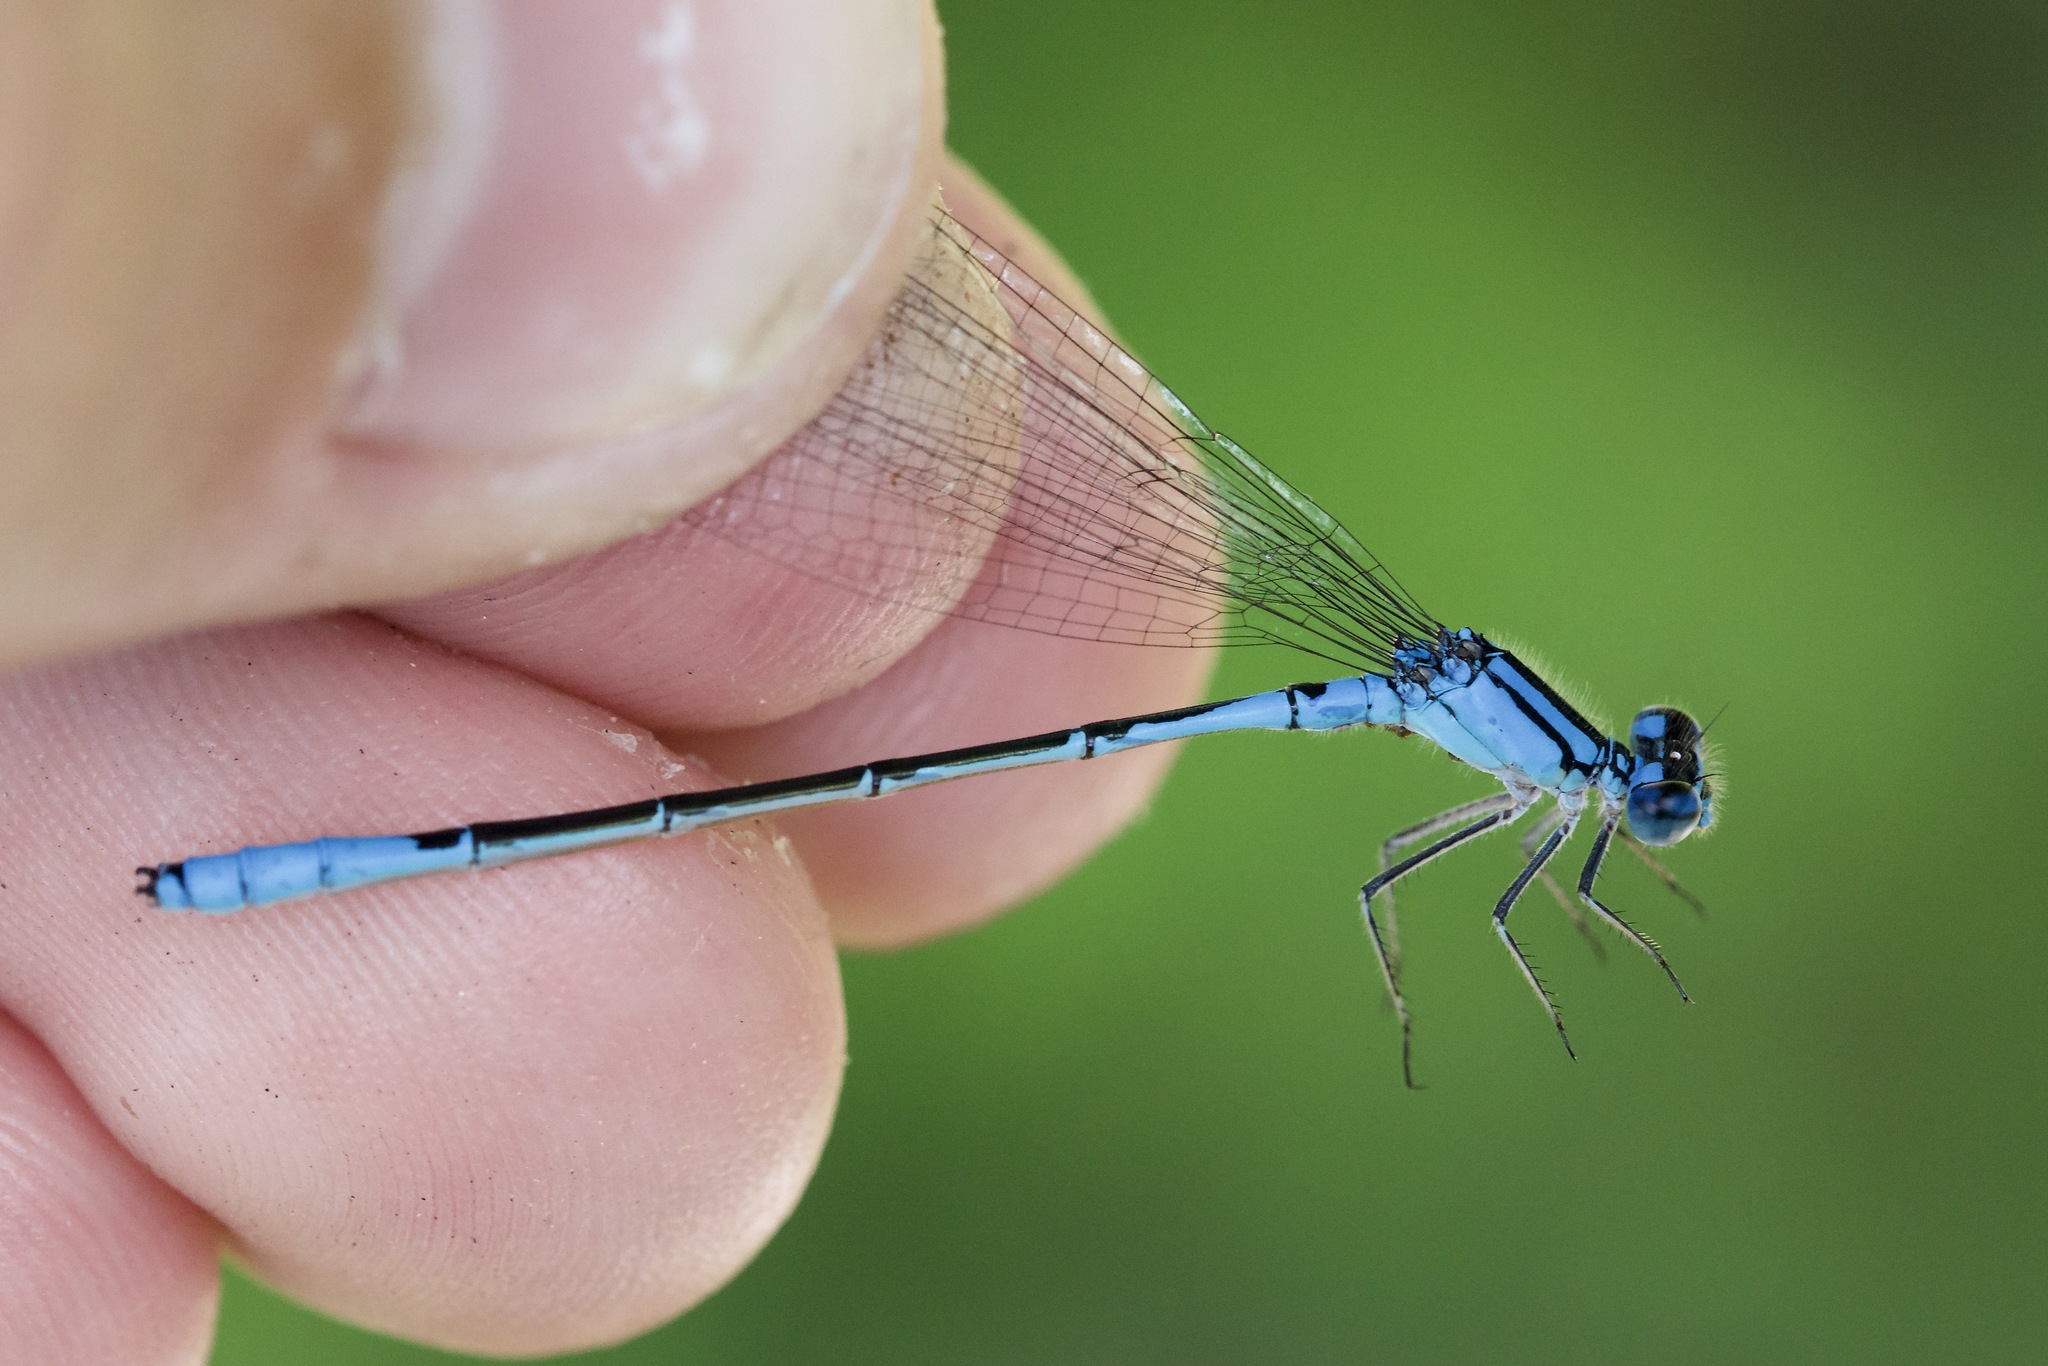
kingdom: Animalia
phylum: Arthropoda
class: Insecta
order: Odonata
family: Coenagrionidae
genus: Enallagma
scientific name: Enallagma aspersum
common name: Azure bluet
